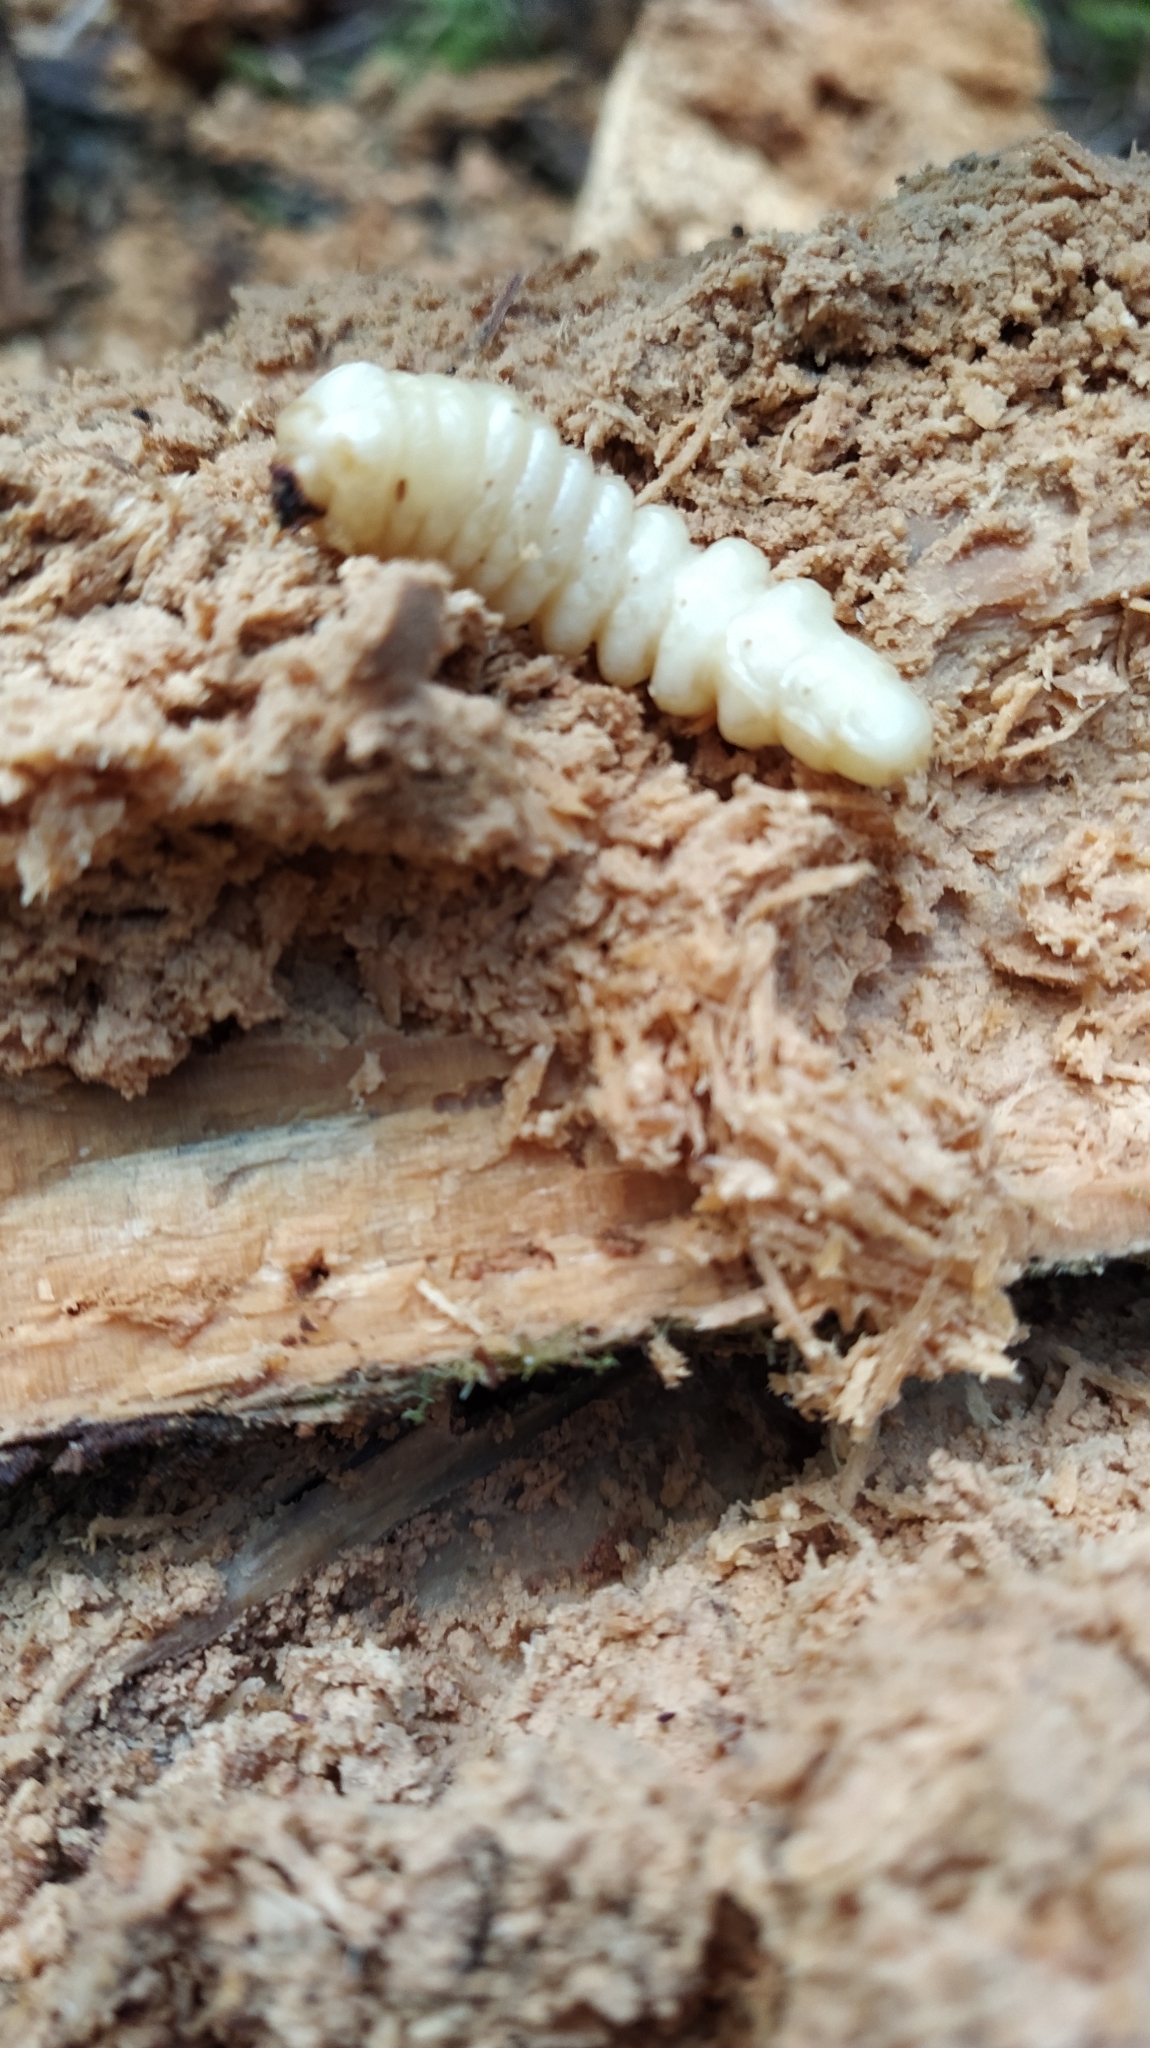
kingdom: Animalia
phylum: Arthropoda
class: Insecta
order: Coleoptera
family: Cerambycidae
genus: Prionoplus
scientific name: Prionoplus reticularis
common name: Huhu beetle
